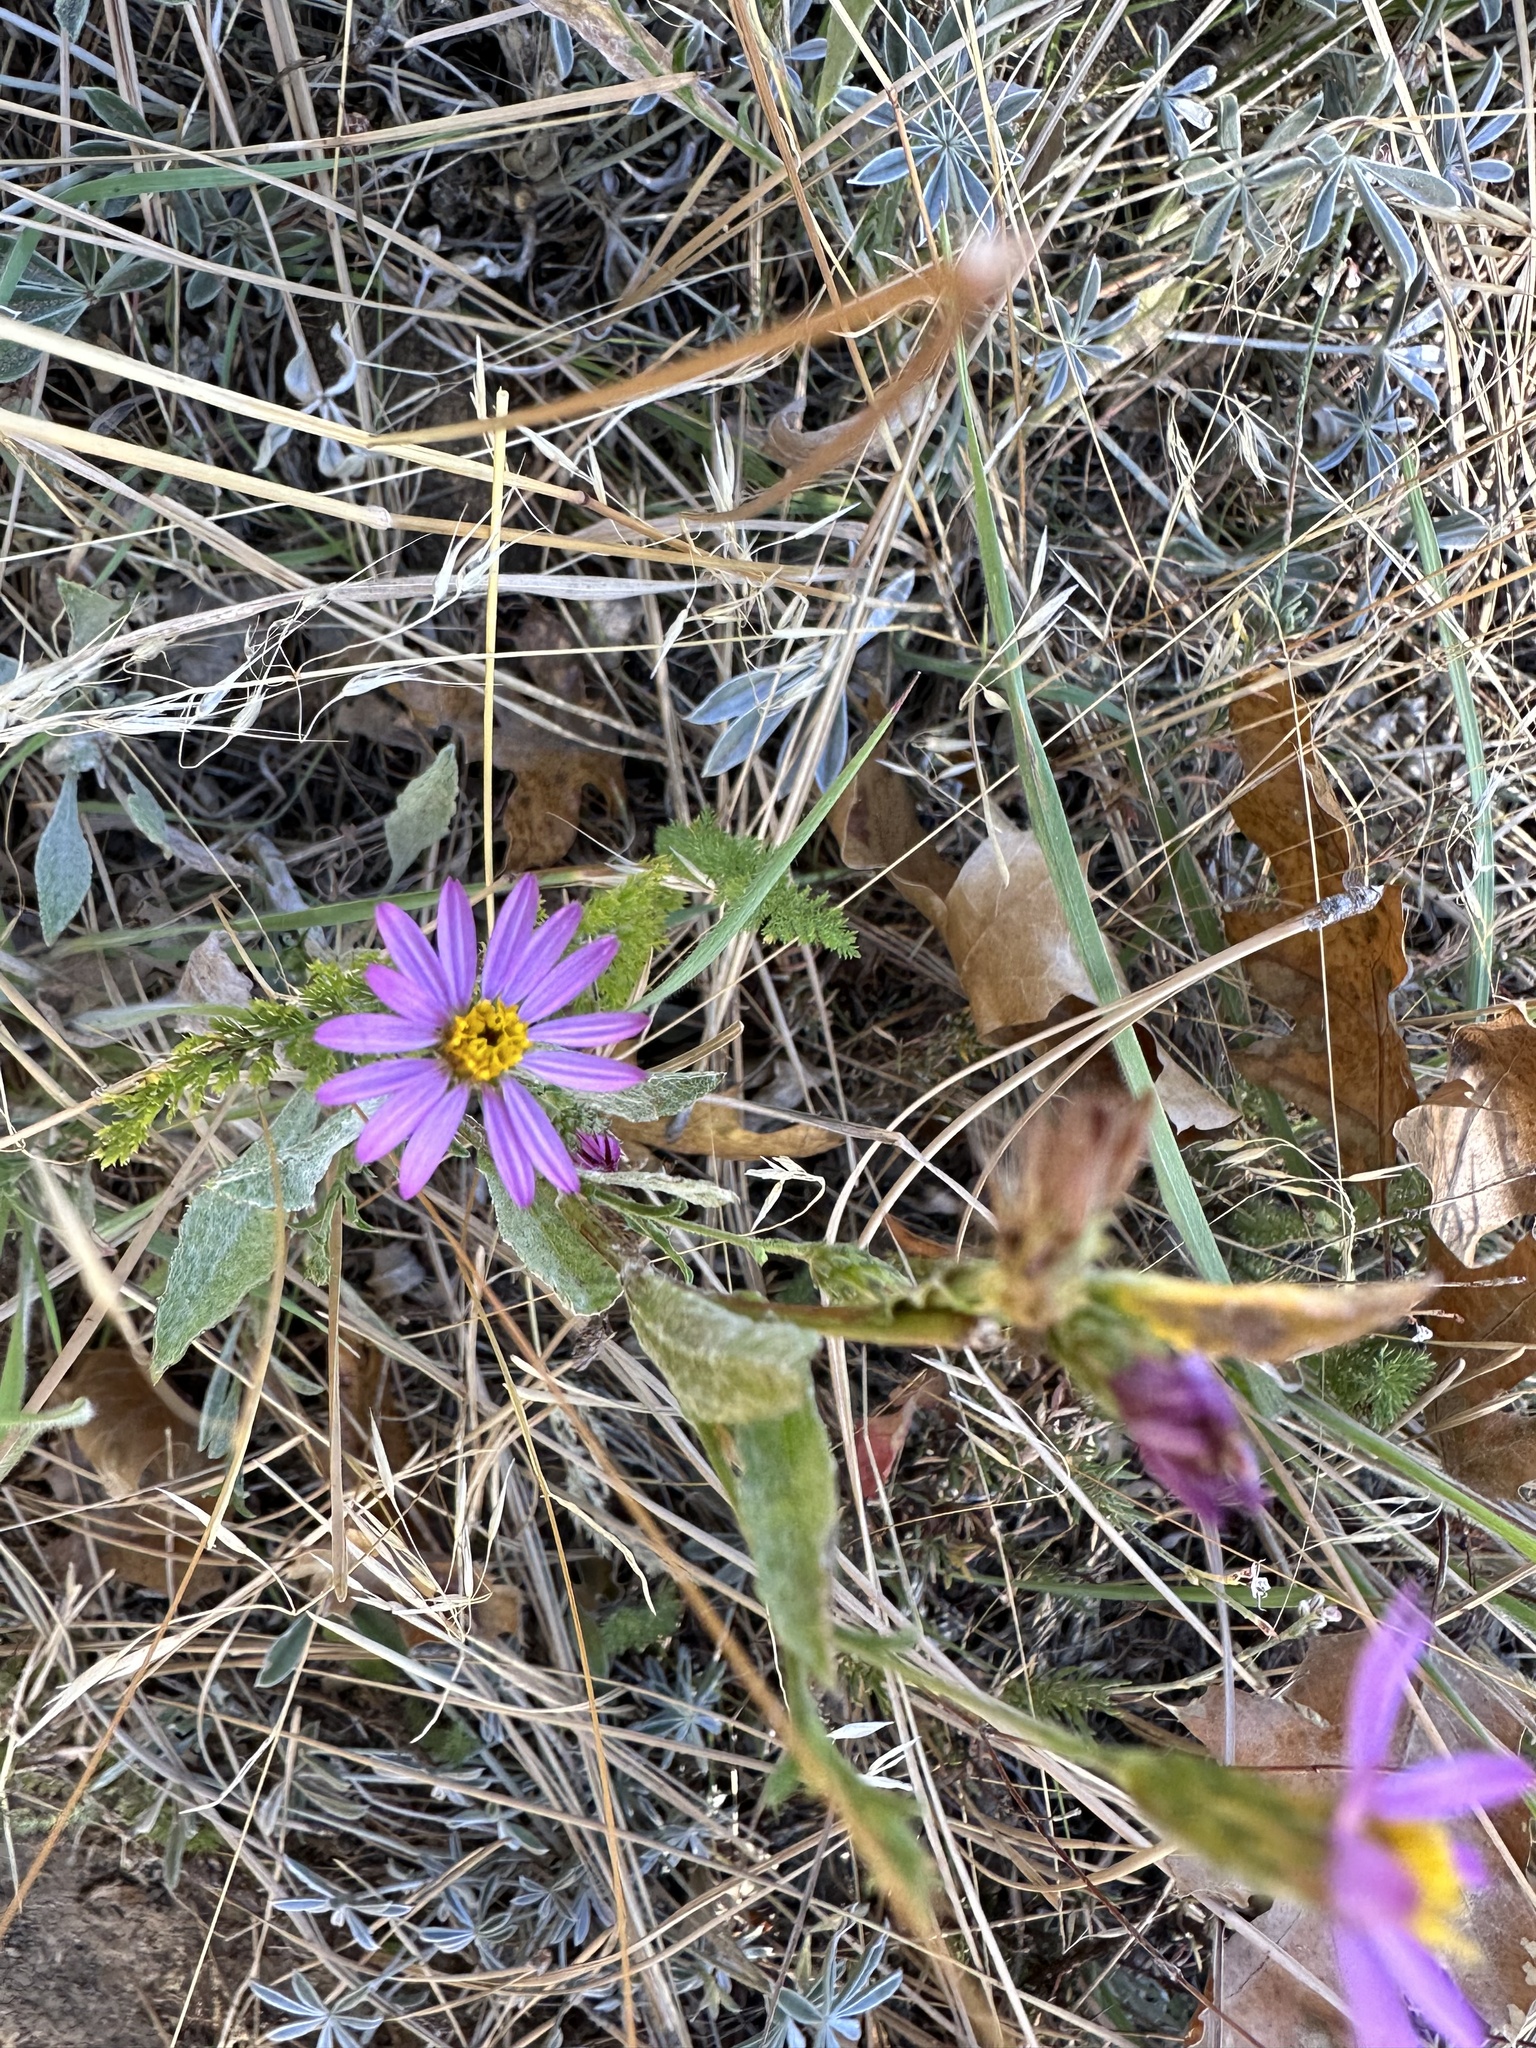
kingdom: Plantae
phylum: Tracheophyta
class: Magnoliopsida
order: Asterales
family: Asteraceae
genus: Corethrogyne
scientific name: Corethrogyne filaginifolia
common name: Sand-aster
